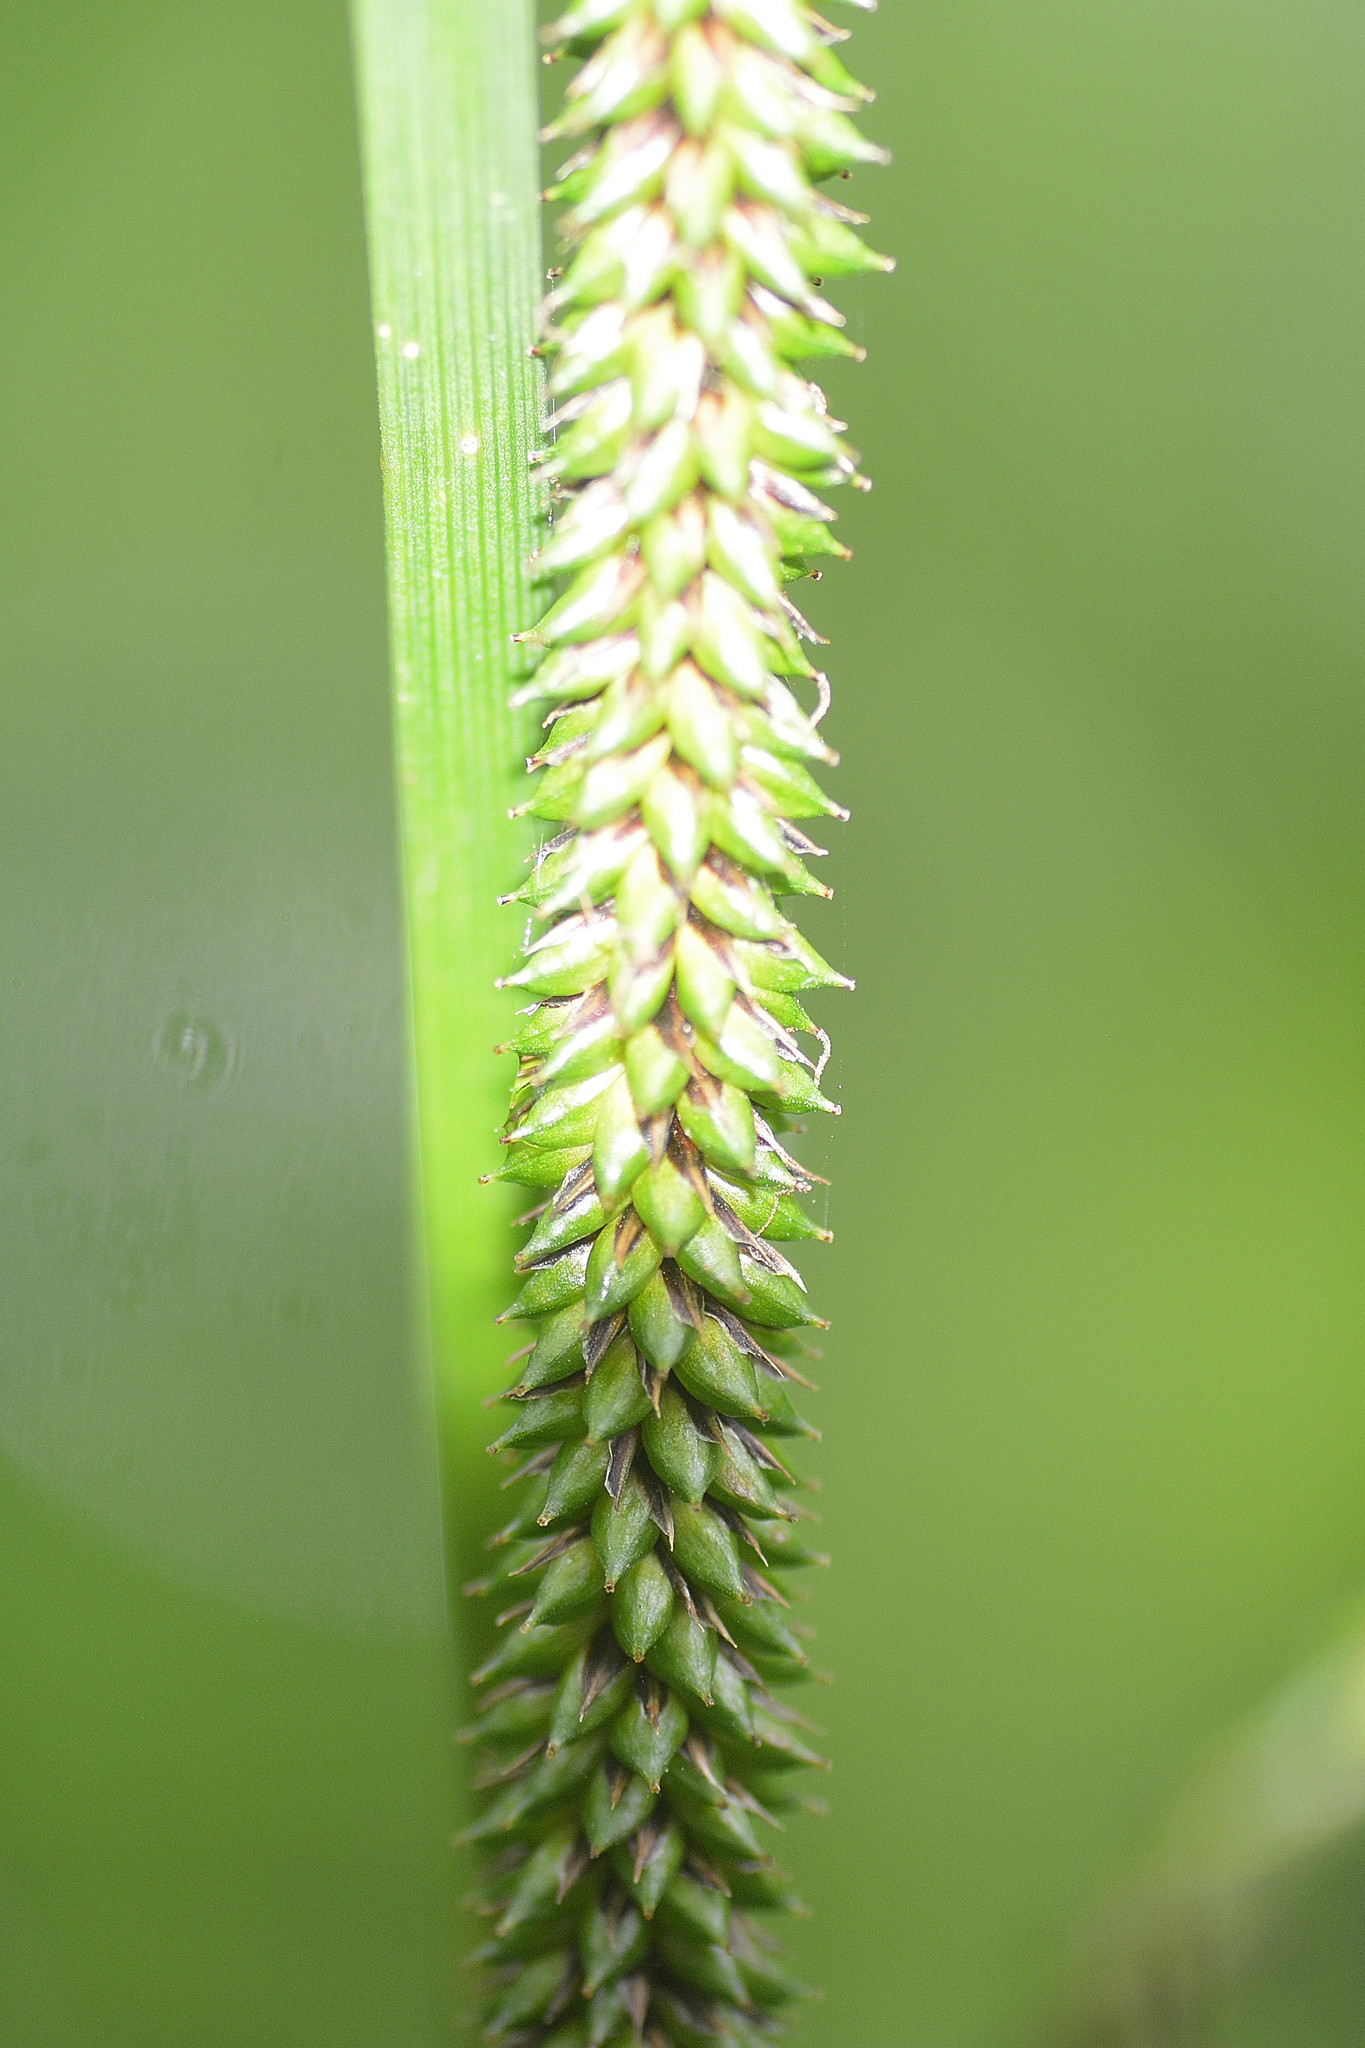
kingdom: Plantae
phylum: Tracheophyta
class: Liliopsida
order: Poales
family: Cyperaceae
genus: Carex
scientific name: Carex pendula
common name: Pendulous sedge
